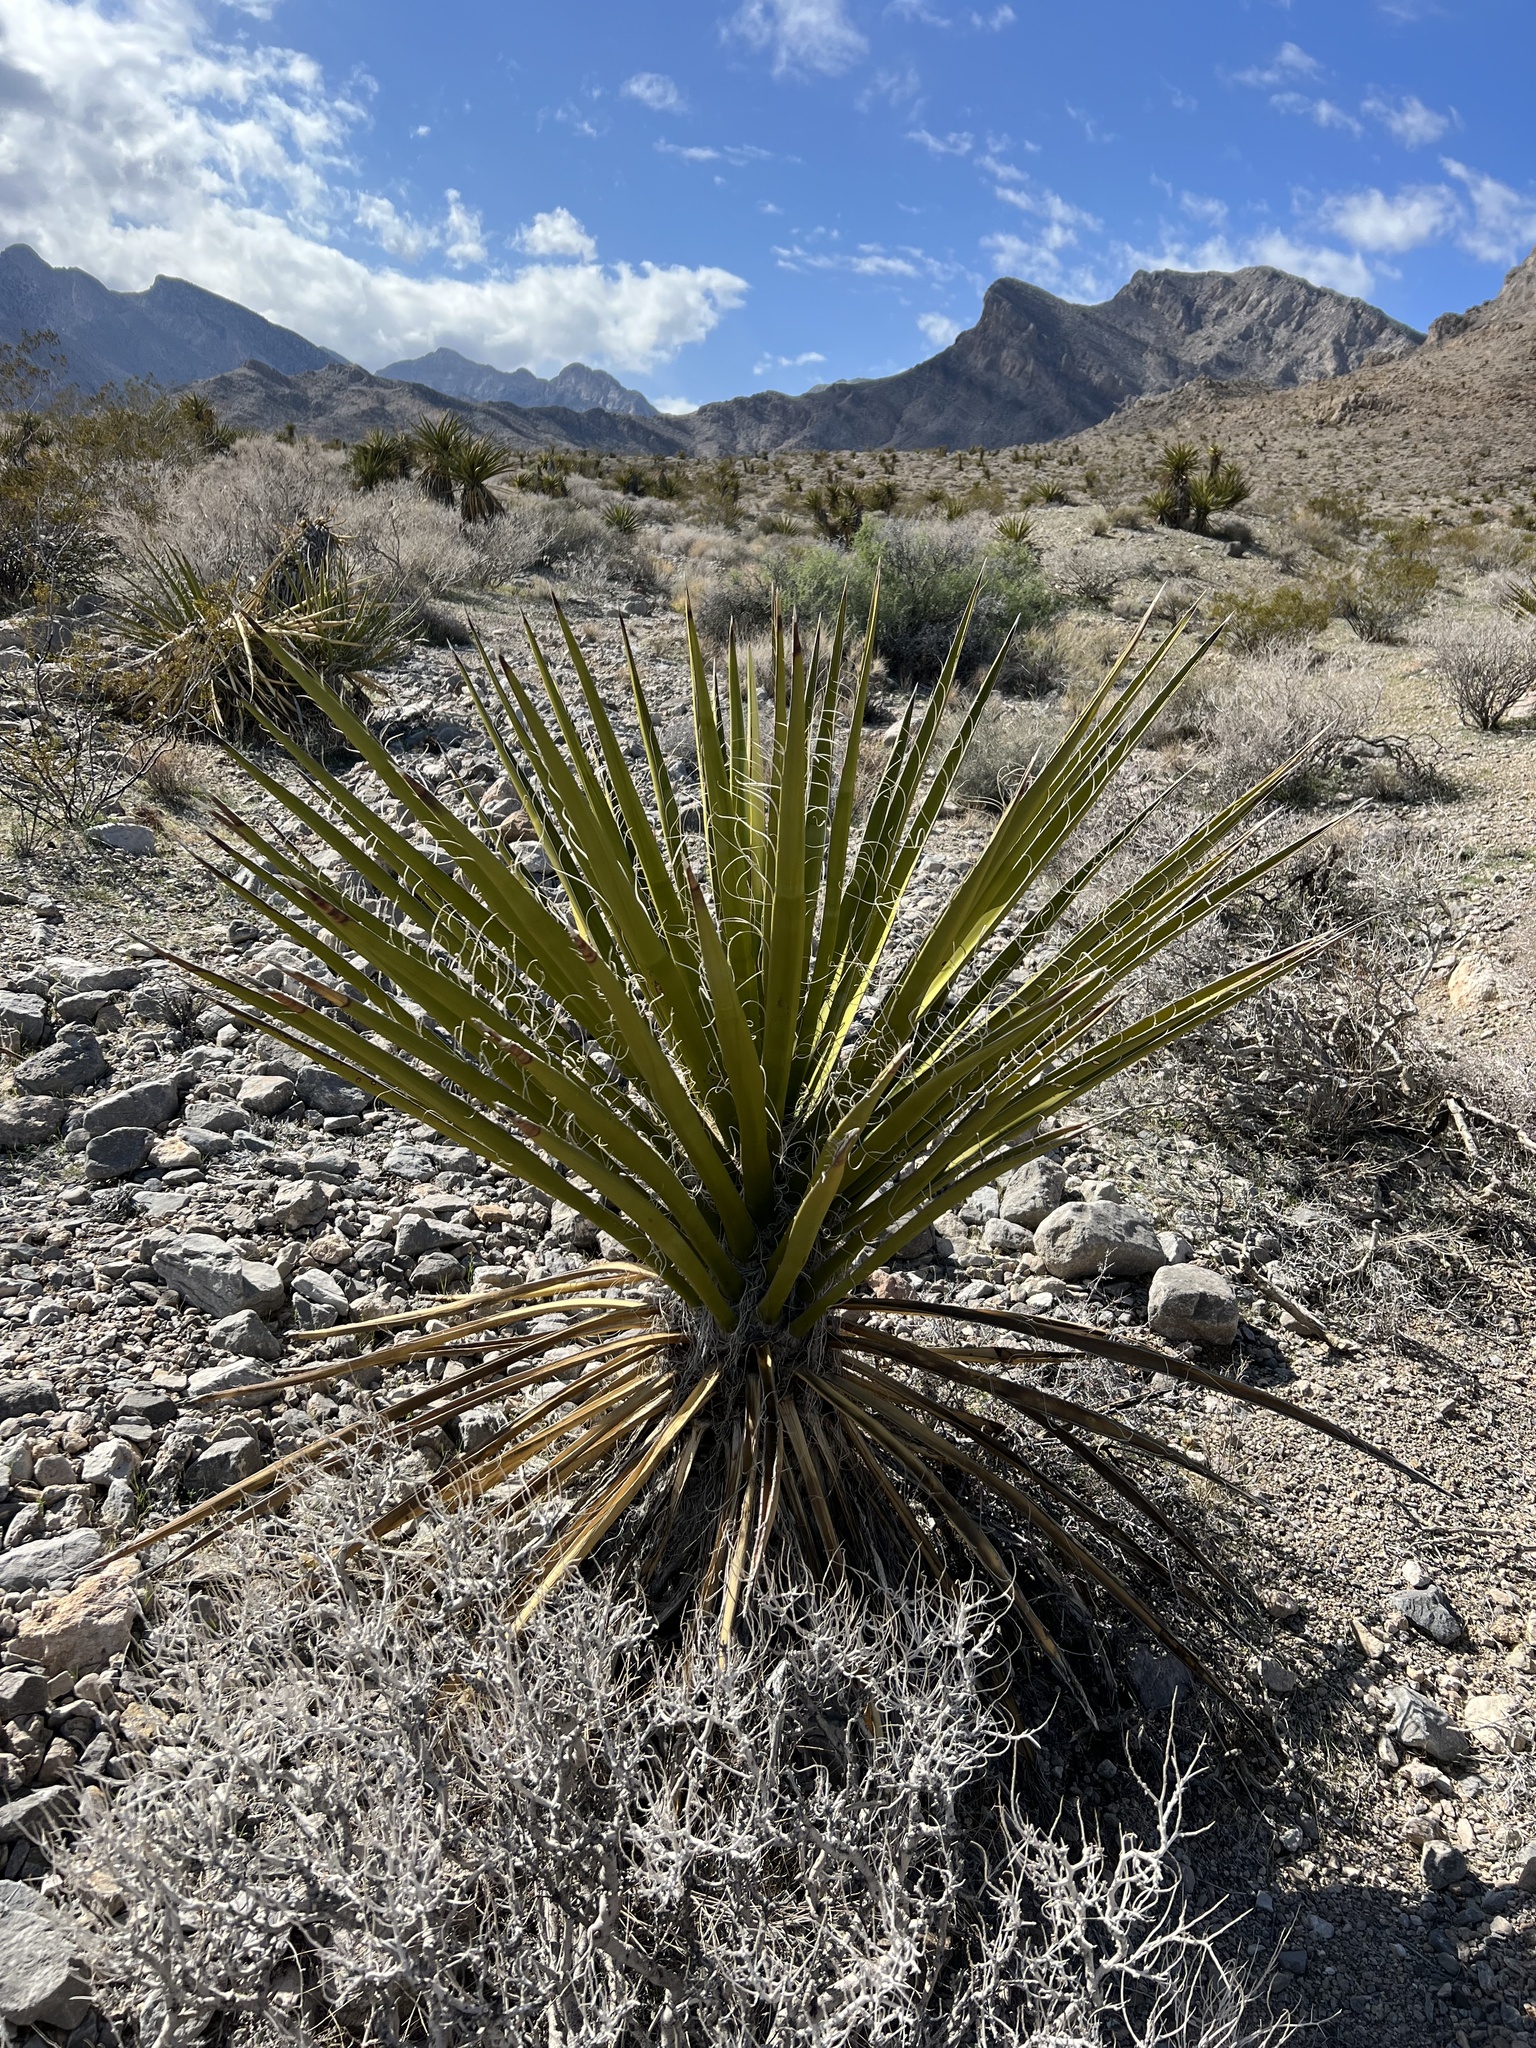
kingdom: Plantae
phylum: Tracheophyta
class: Liliopsida
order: Asparagales
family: Asparagaceae
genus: Yucca
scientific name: Yucca schidigera
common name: Mojave yucca
